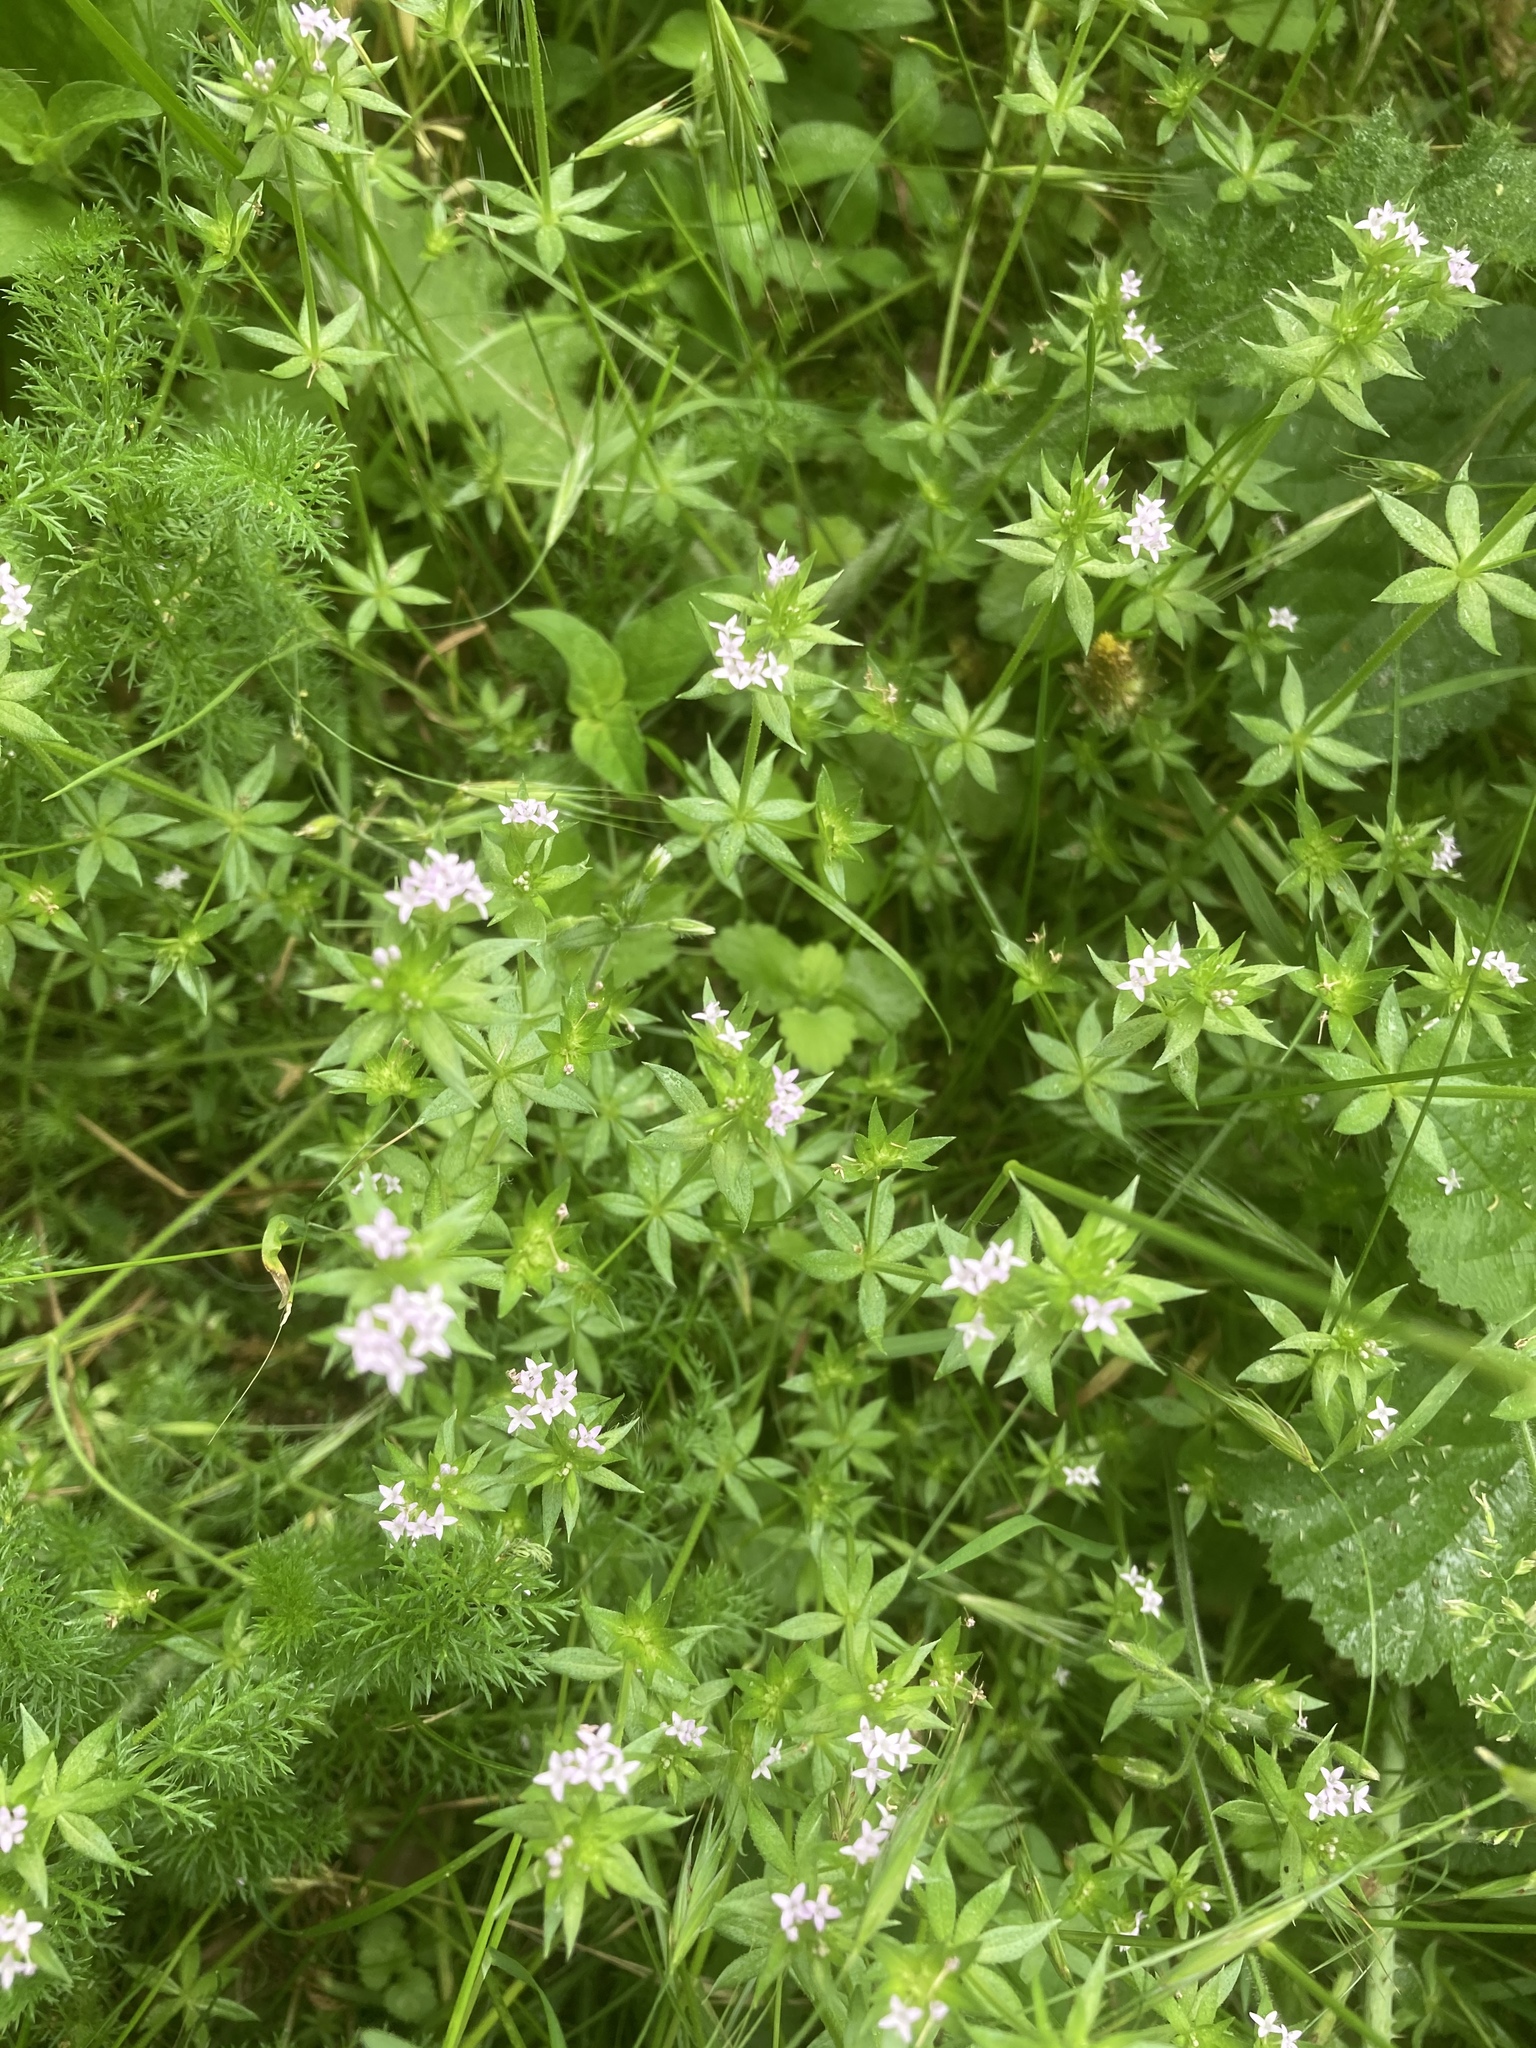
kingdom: Plantae
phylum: Tracheophyta
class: Magnoliopsida
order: Gentianales
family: Rubiaceae
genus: Sherardia
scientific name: Sherardia arvensis
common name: Field madder
